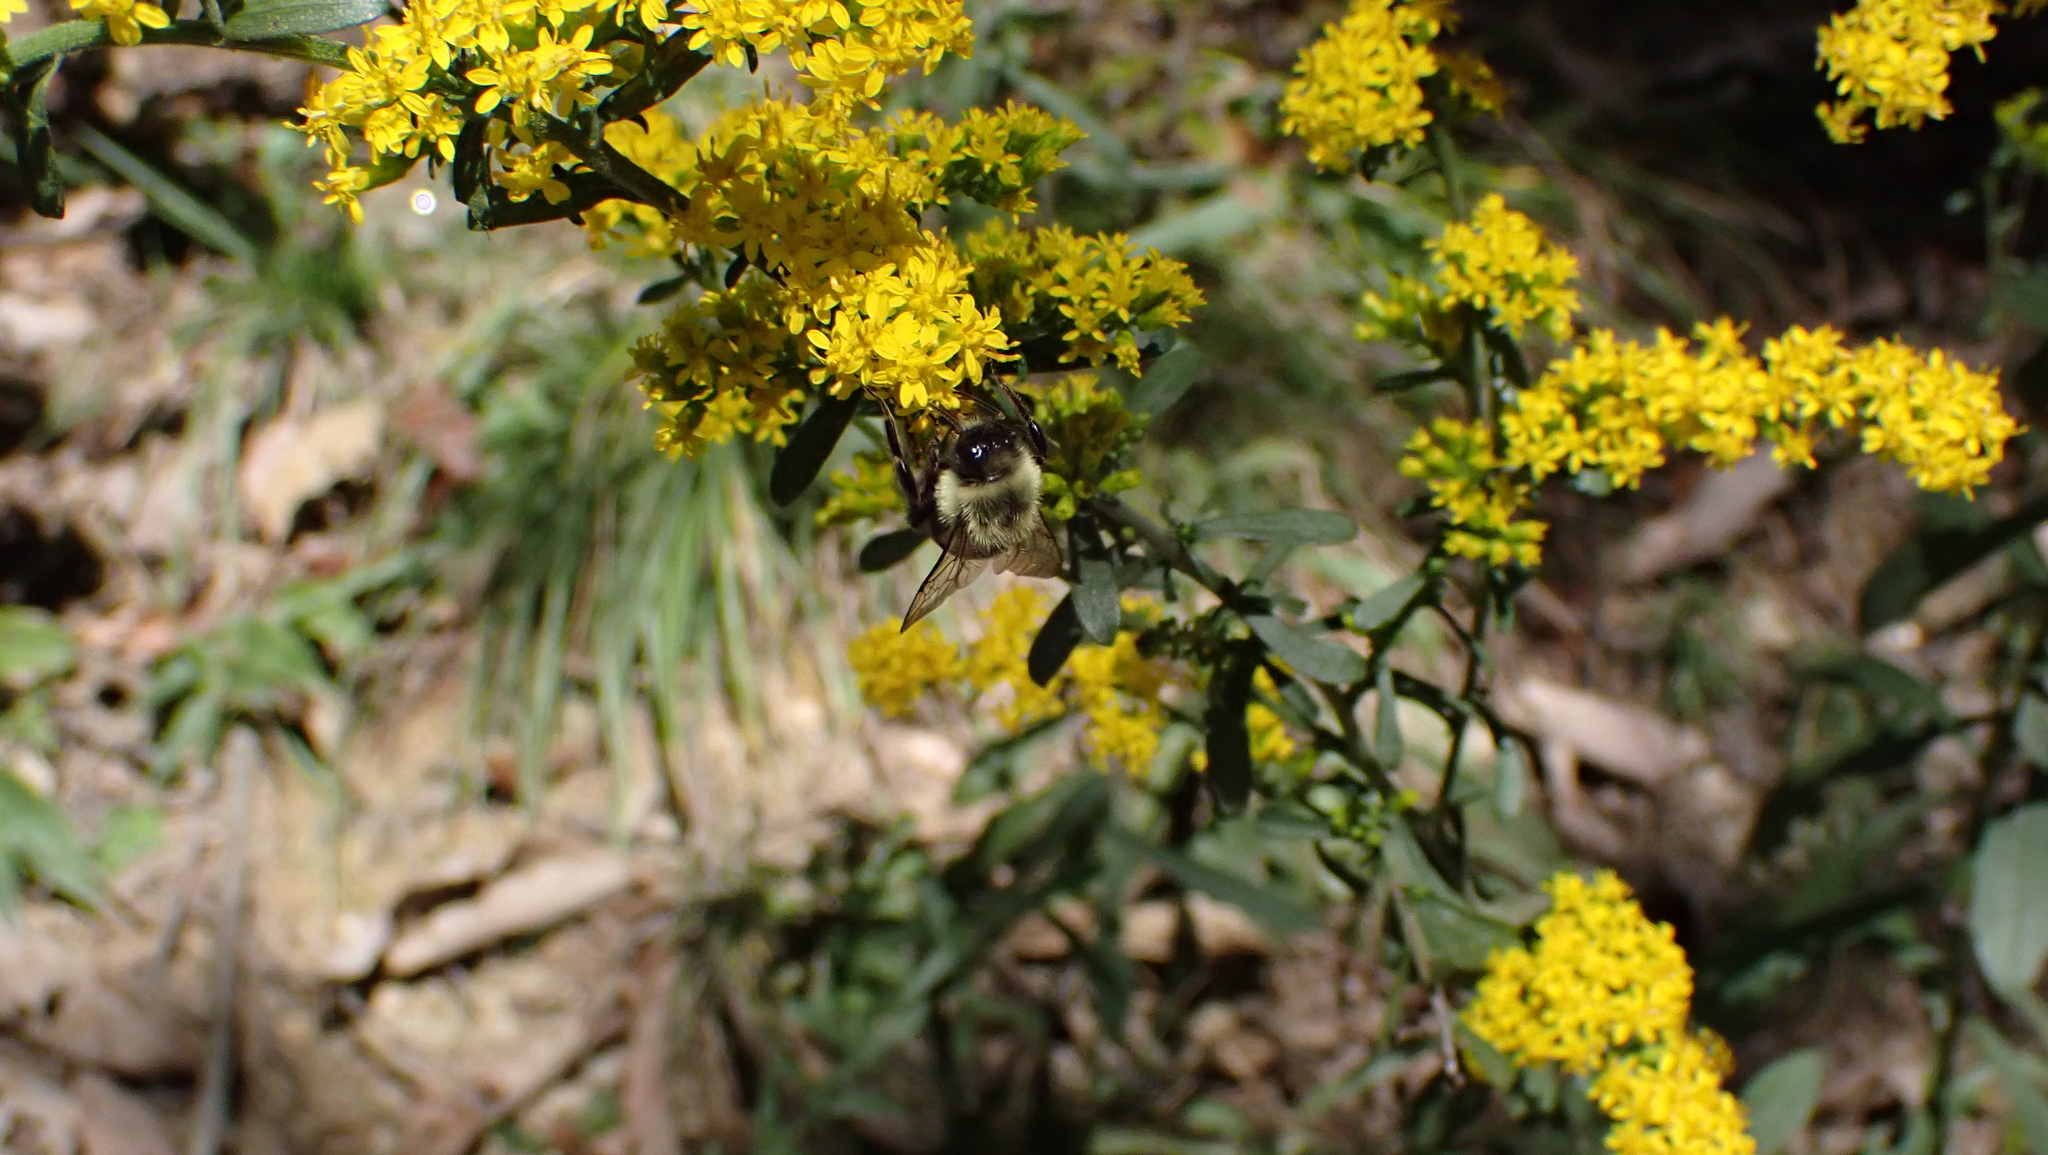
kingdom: Animalia
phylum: Arthropoda
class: Insecta
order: Hymenoptera
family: Apidae
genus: Bombus
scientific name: Bombus impatiens
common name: Common eastern bumble bee
